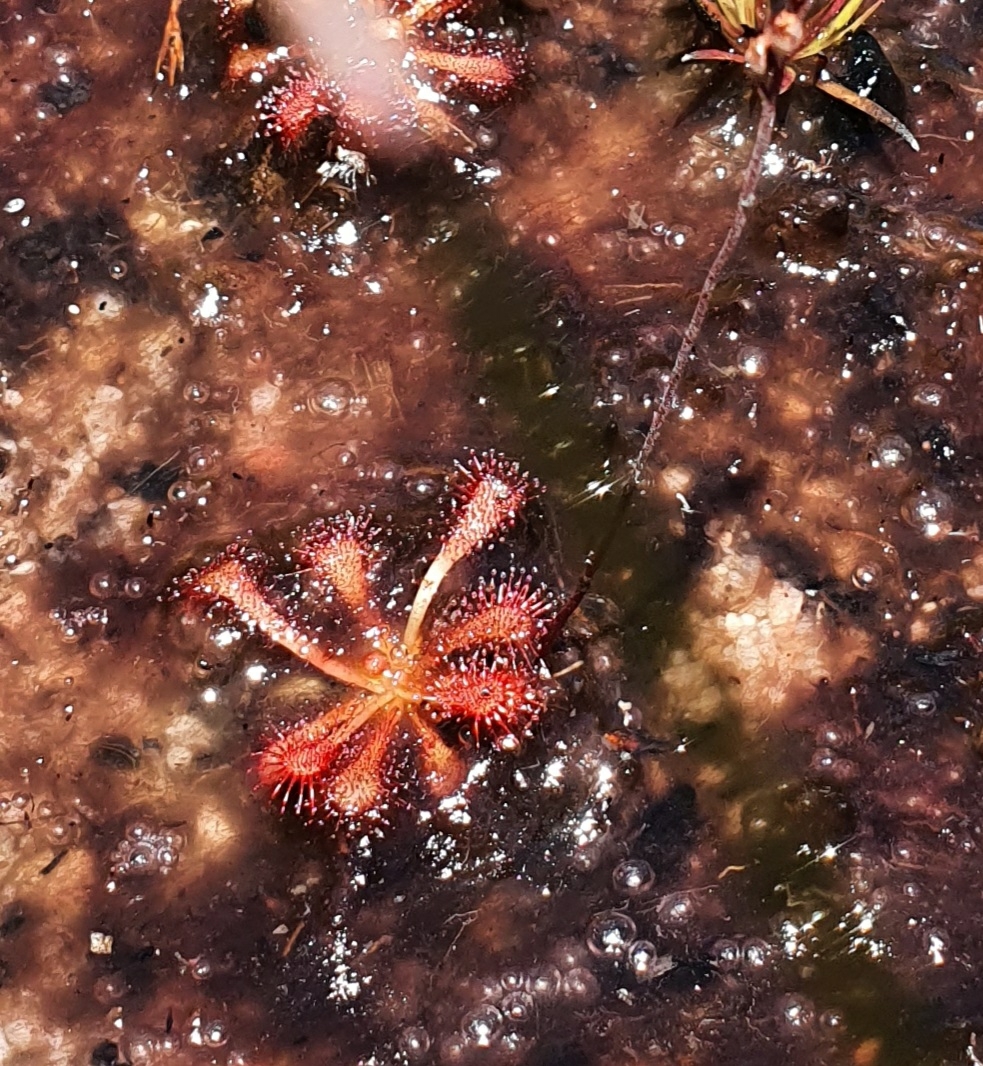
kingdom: Plantae
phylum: Tracheophyta
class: Magnoliopsida
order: Caryophyllales
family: Droseraceae
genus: Drosera
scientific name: Drosera spatulata
